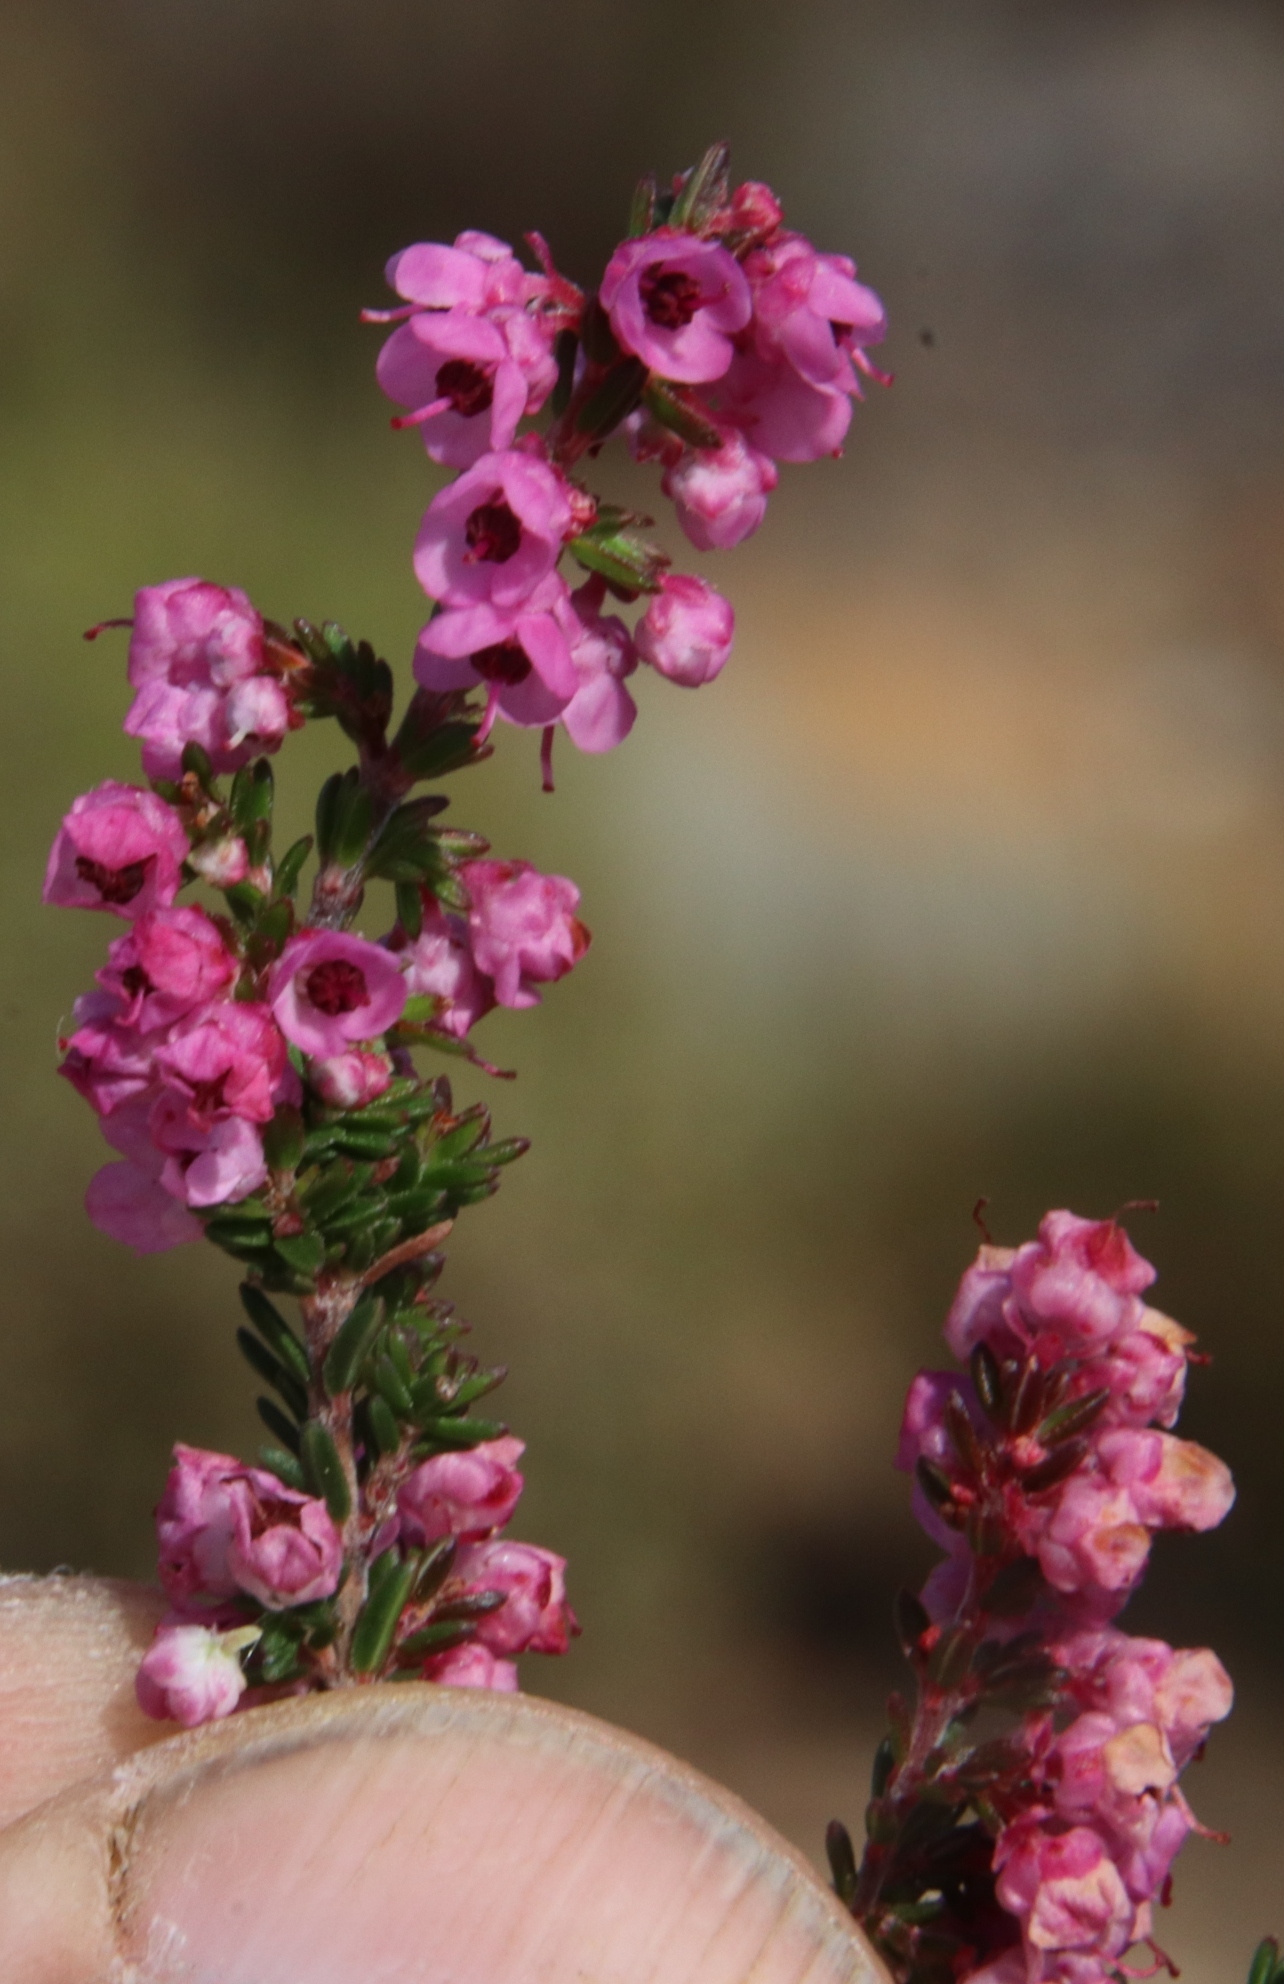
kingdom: Plantae
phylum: Tracheophyta
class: Magnoliopsida
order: Ericales
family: Ericaceae
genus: Erica
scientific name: Erica cristiflora
